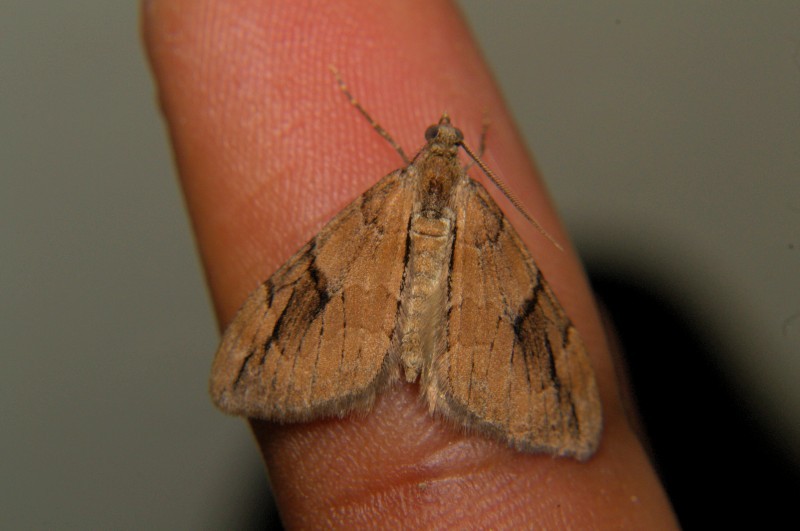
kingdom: Animalia
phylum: Arthropoda
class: Insecta
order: Lepidoptera
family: Geometridae
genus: Heterothera
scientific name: Heterothera etes
